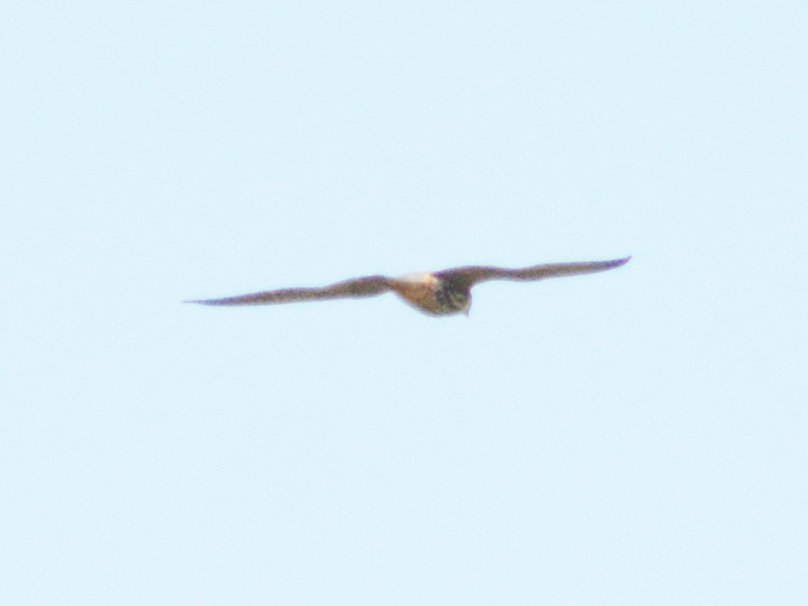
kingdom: Animalia
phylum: Chordata
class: Aves
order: Falconiformes
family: Falconidae
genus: Falco
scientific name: Falco subbuteo
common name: Eurasian hobby
